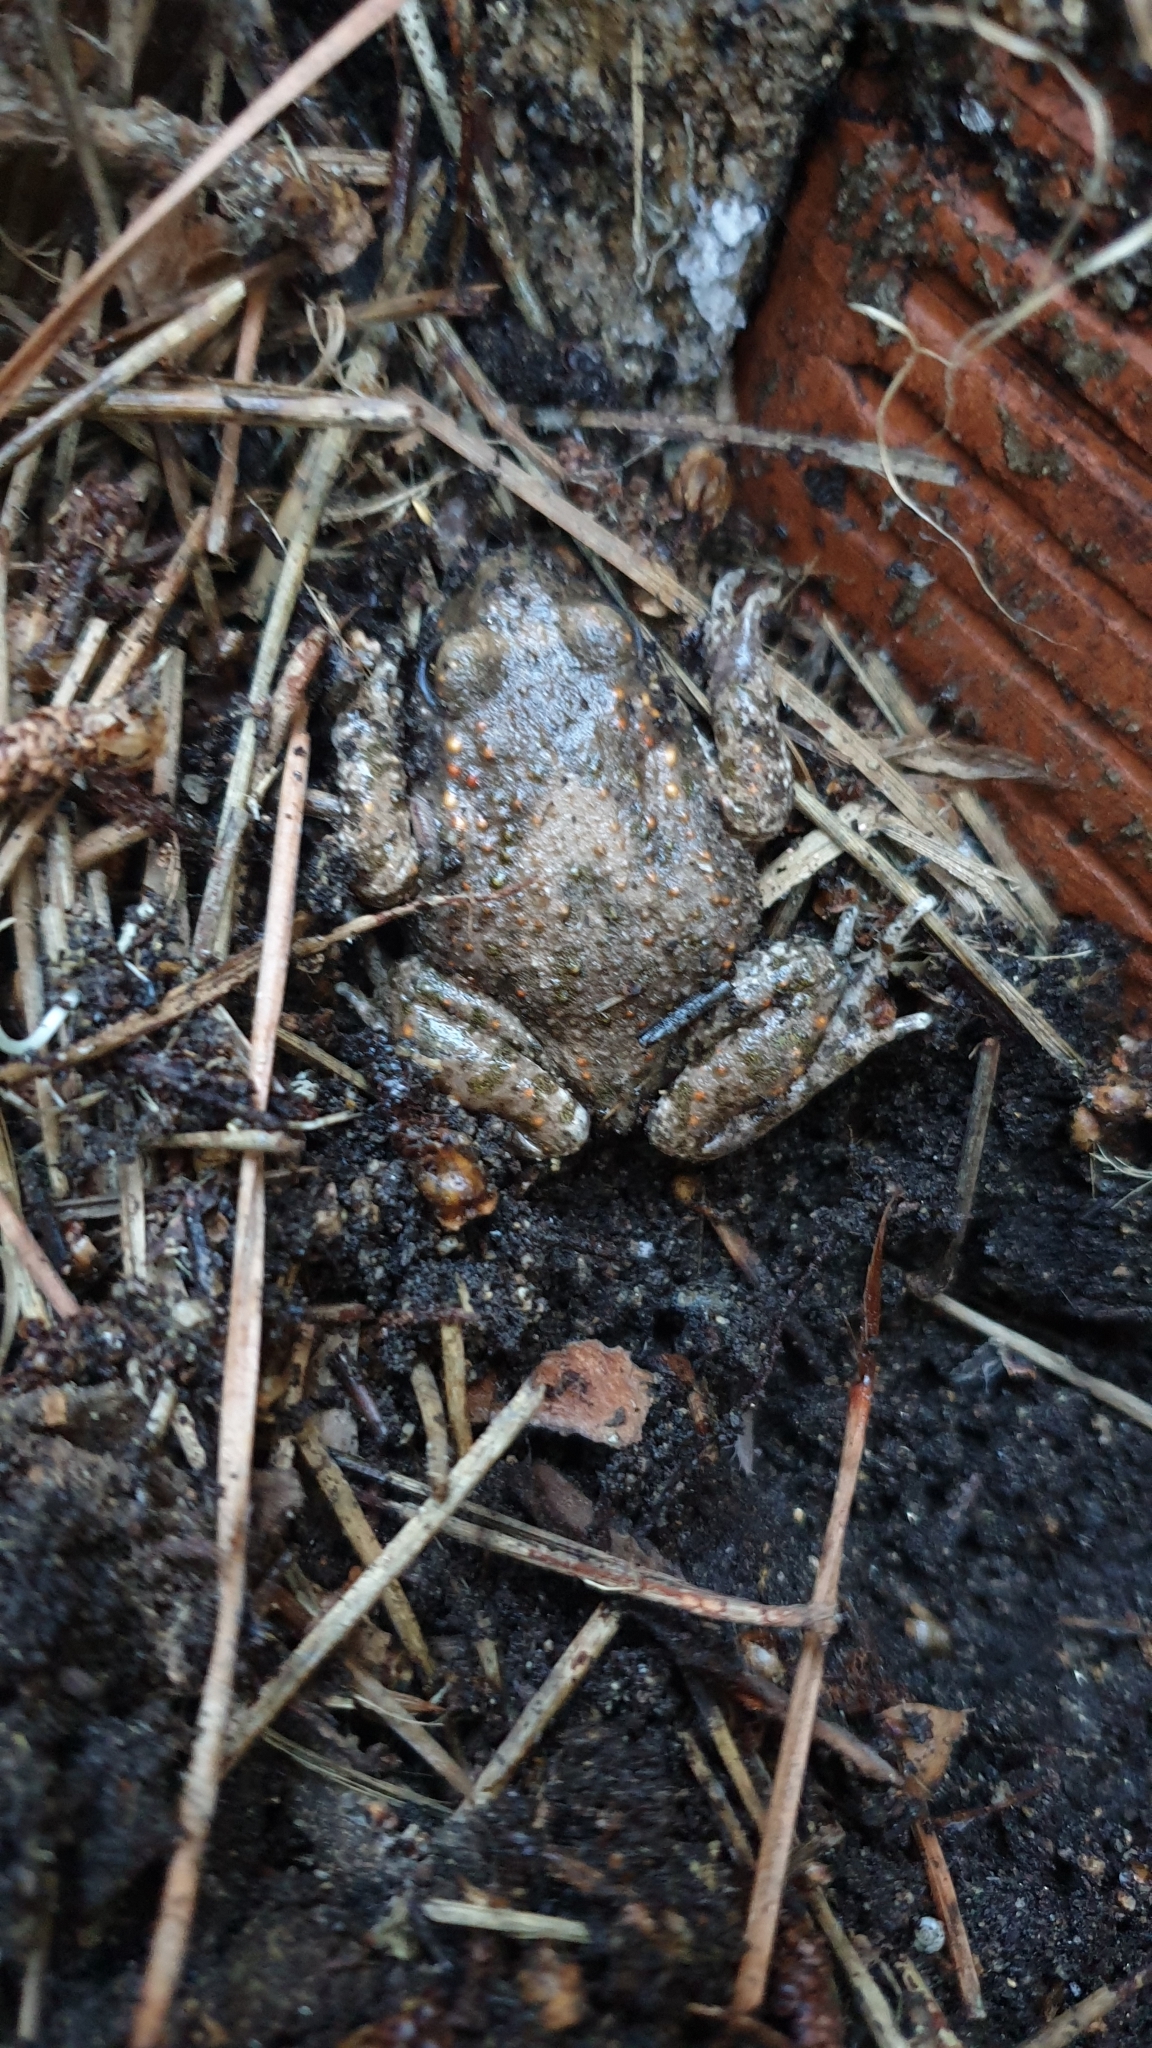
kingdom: Animalia
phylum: Chordata
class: Amphibia
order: Anura
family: Alytidae
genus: Alytes
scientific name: Alytes obstetricans
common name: Midwife toad
